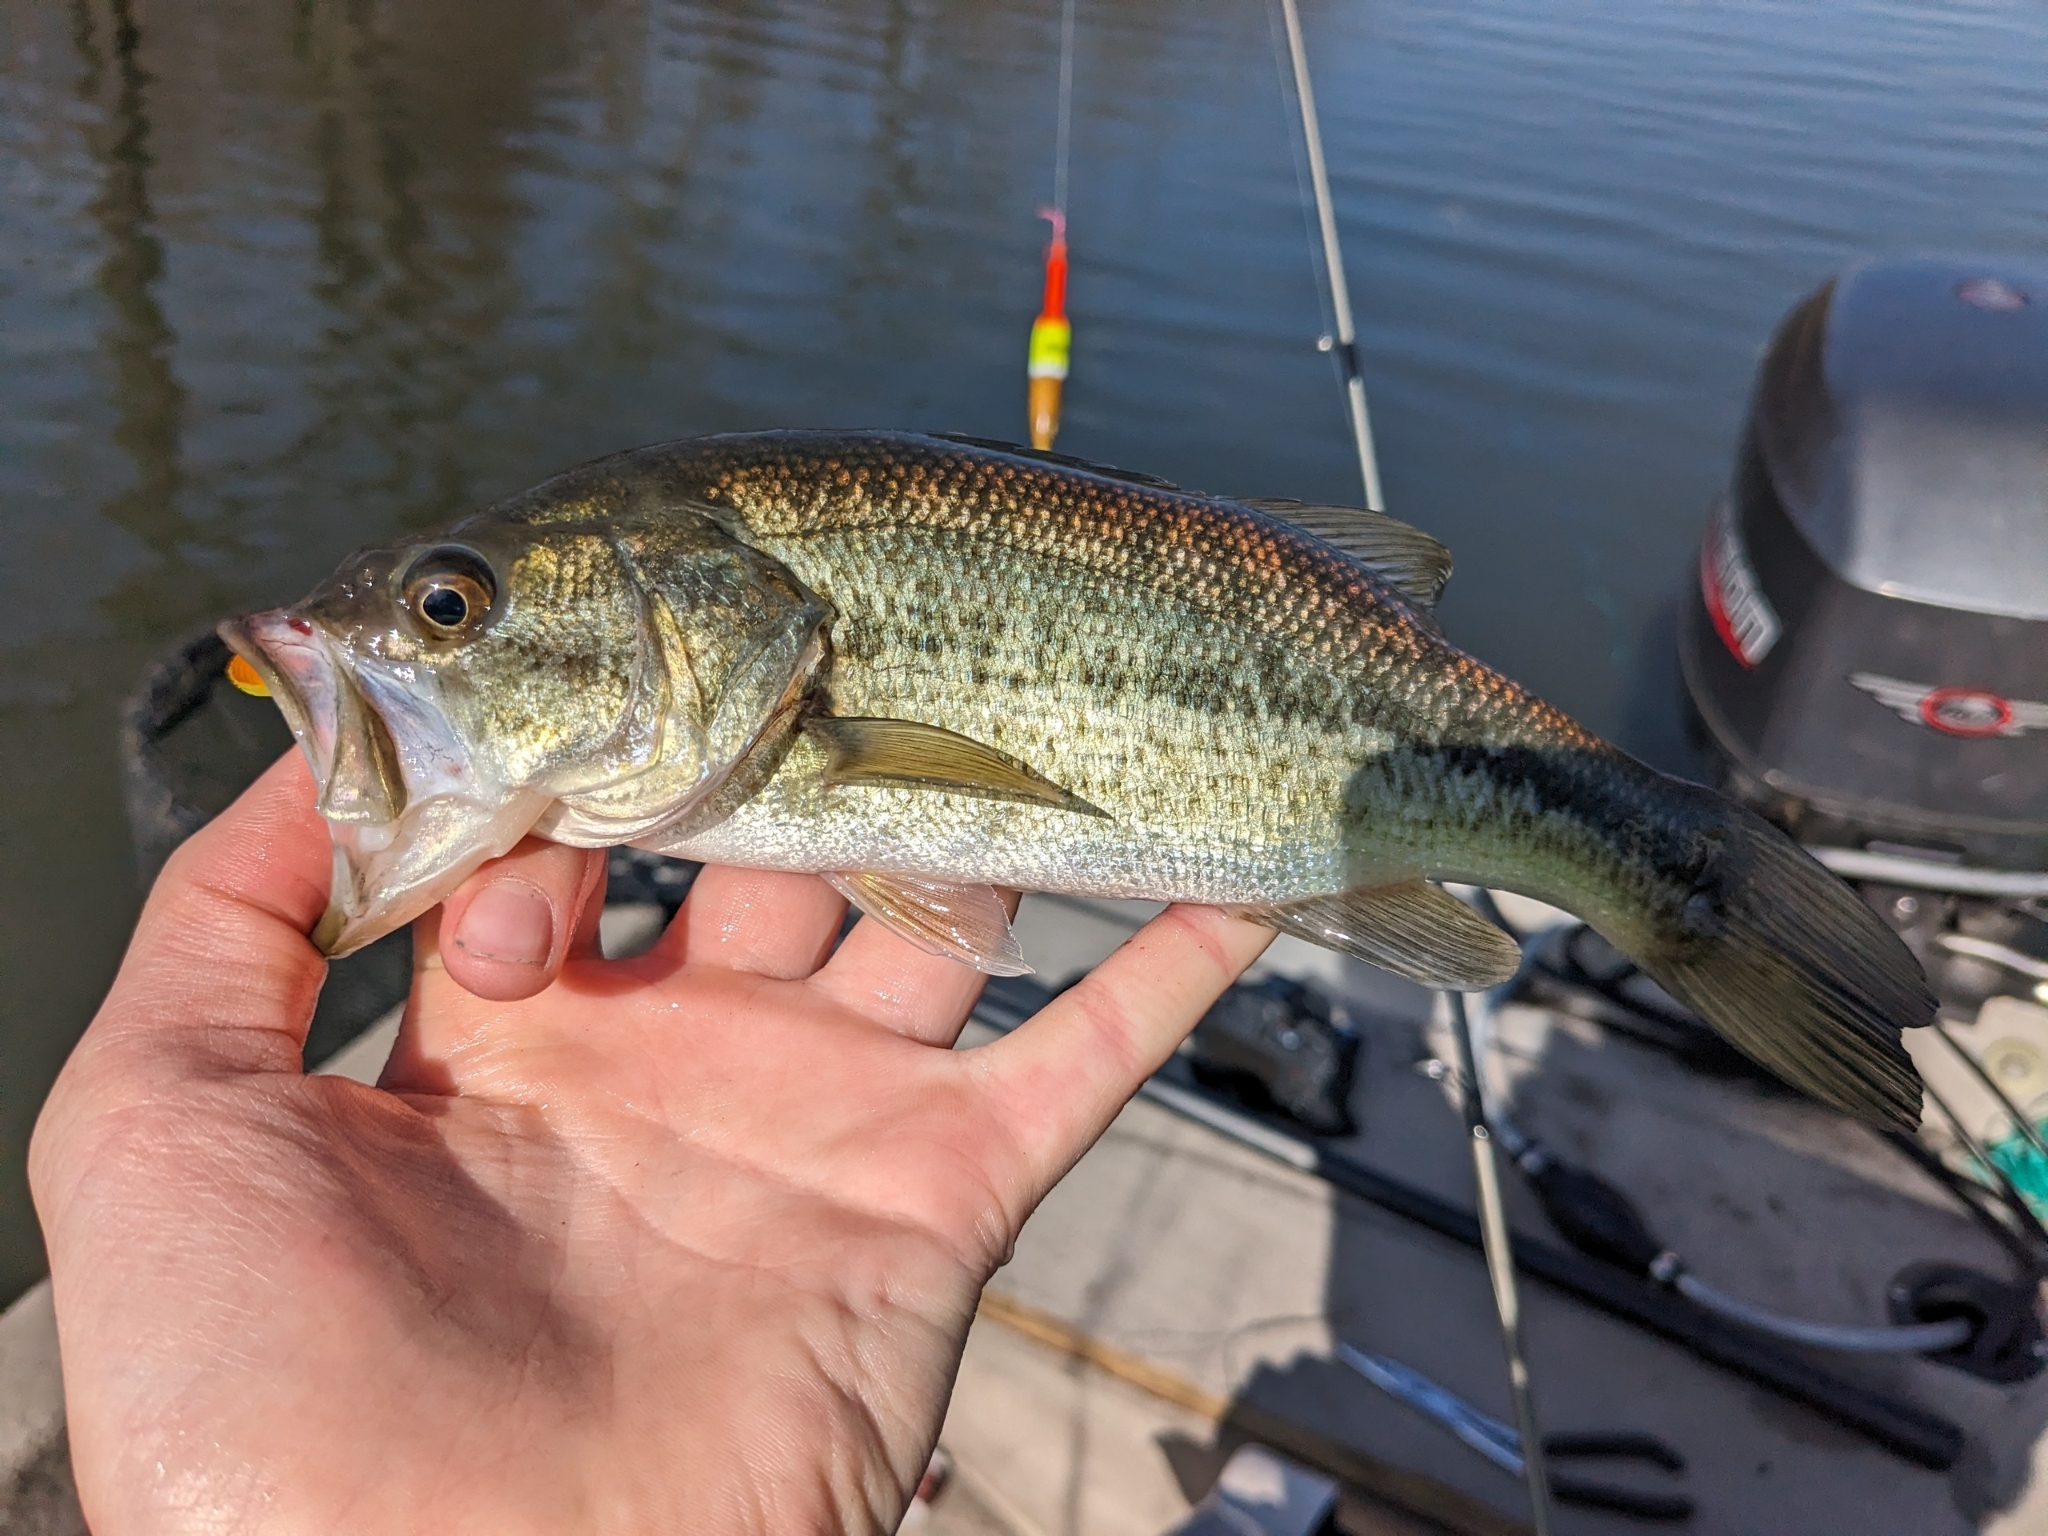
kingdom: Animalia
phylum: Chordata
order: Perciformes
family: Centrarchidae
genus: Micropterus
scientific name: Micropterus
